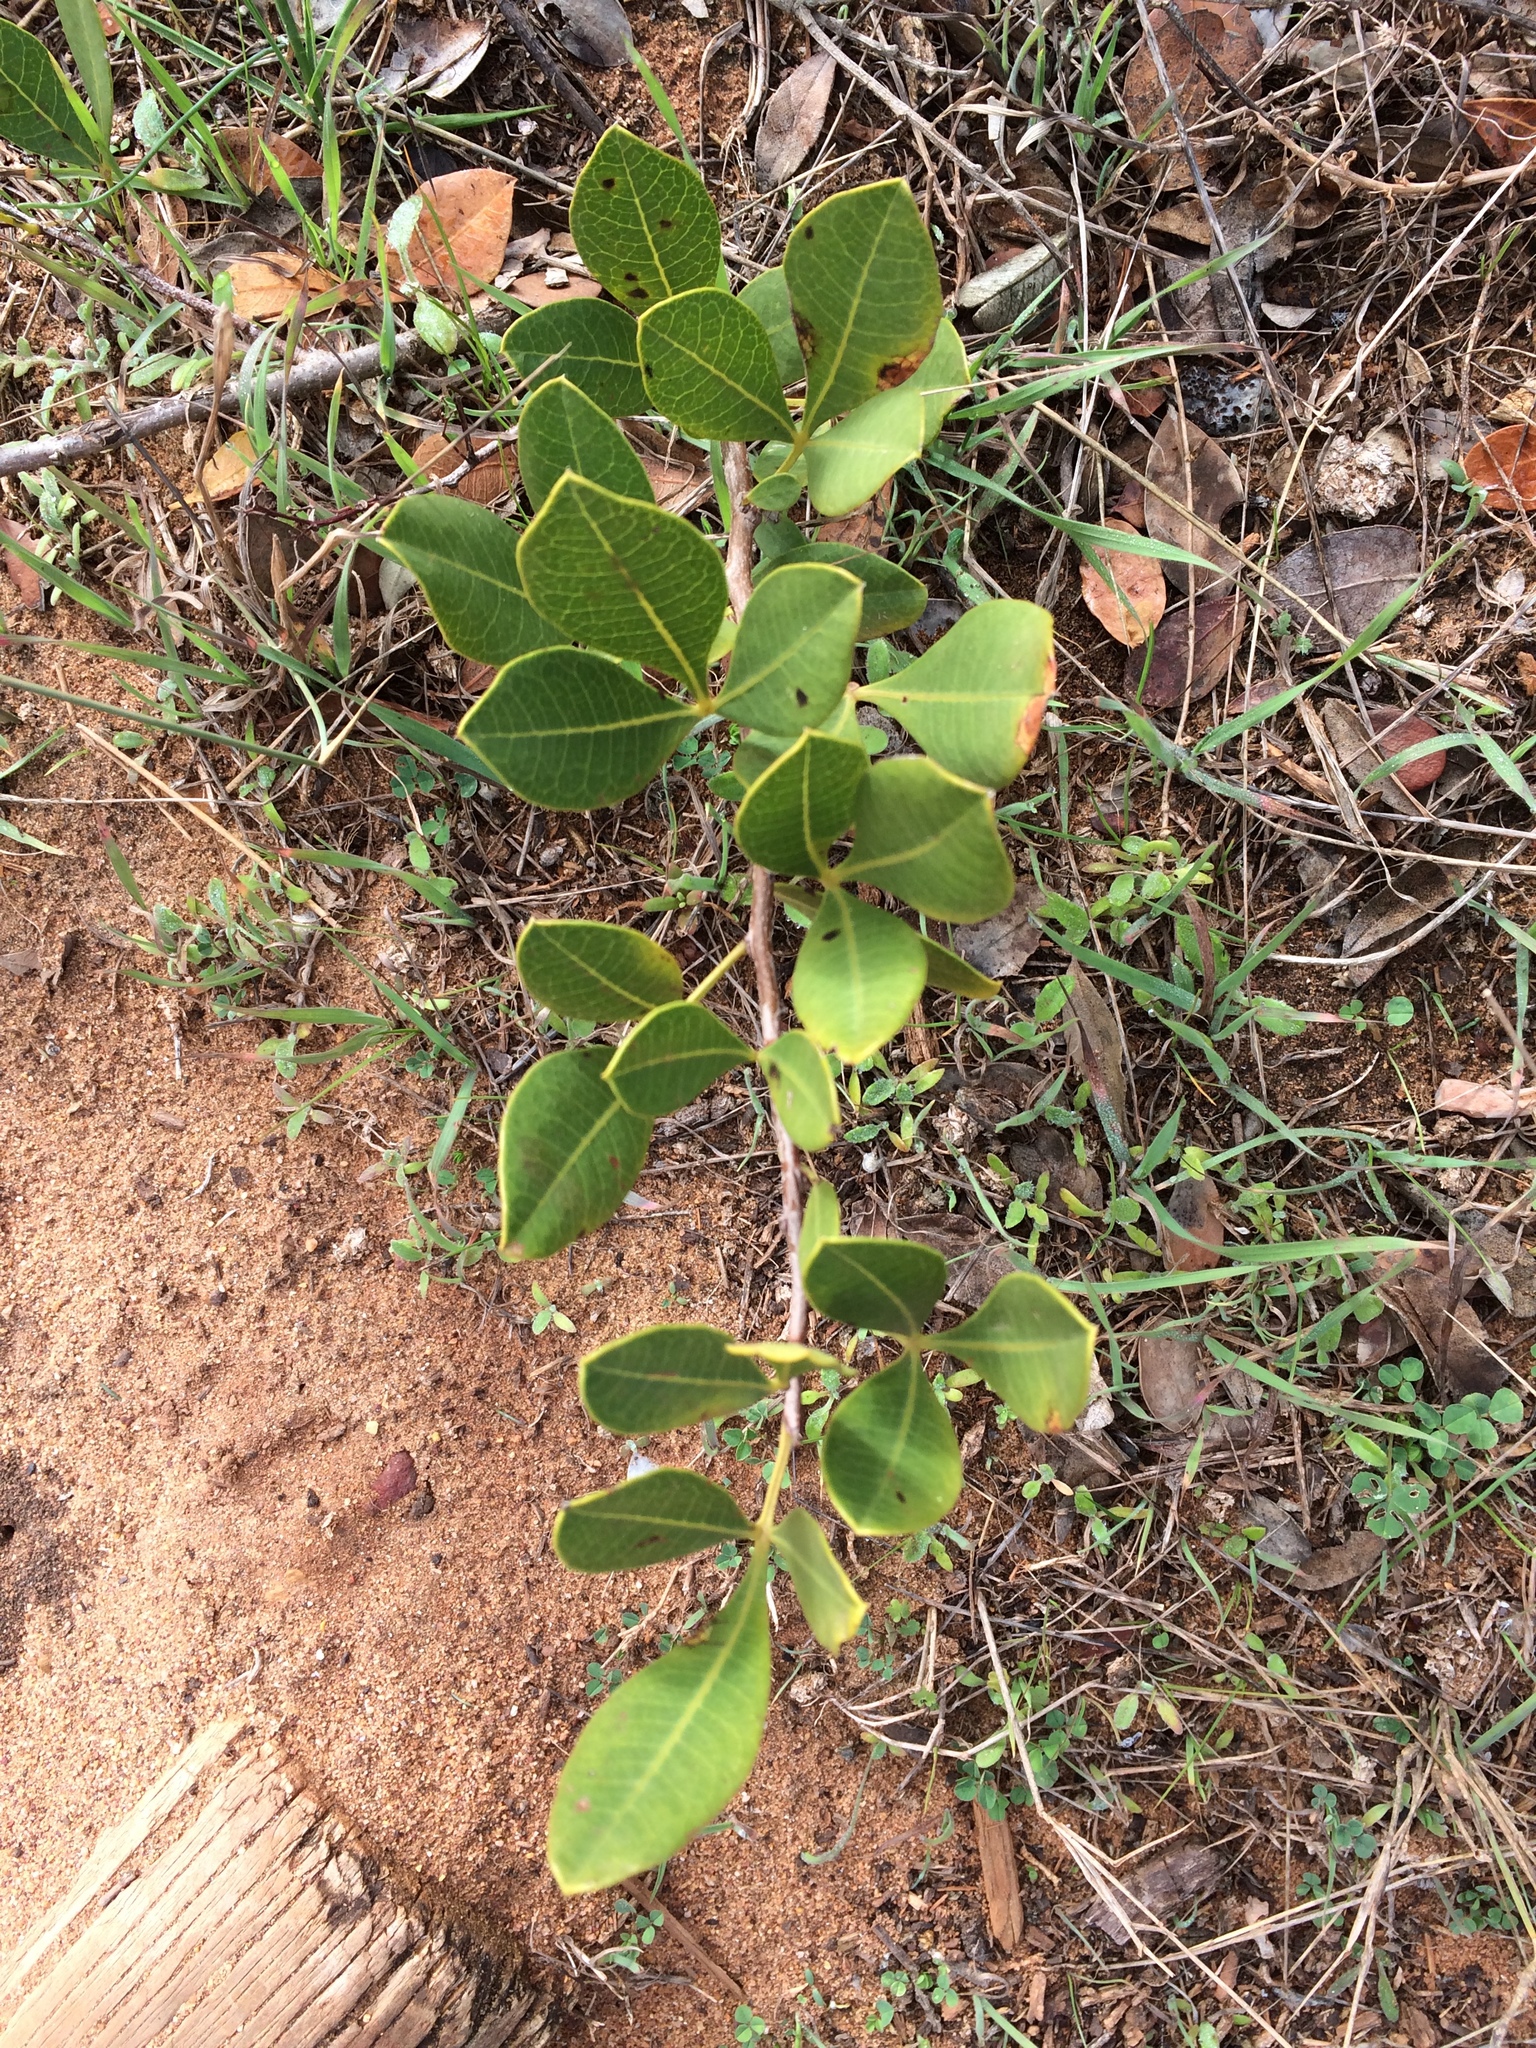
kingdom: Plantae
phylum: Tracheophyta
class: Magnoliopsida
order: Sapindales
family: Anacardiaceae
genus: Searsia
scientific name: Searsia laevigata
